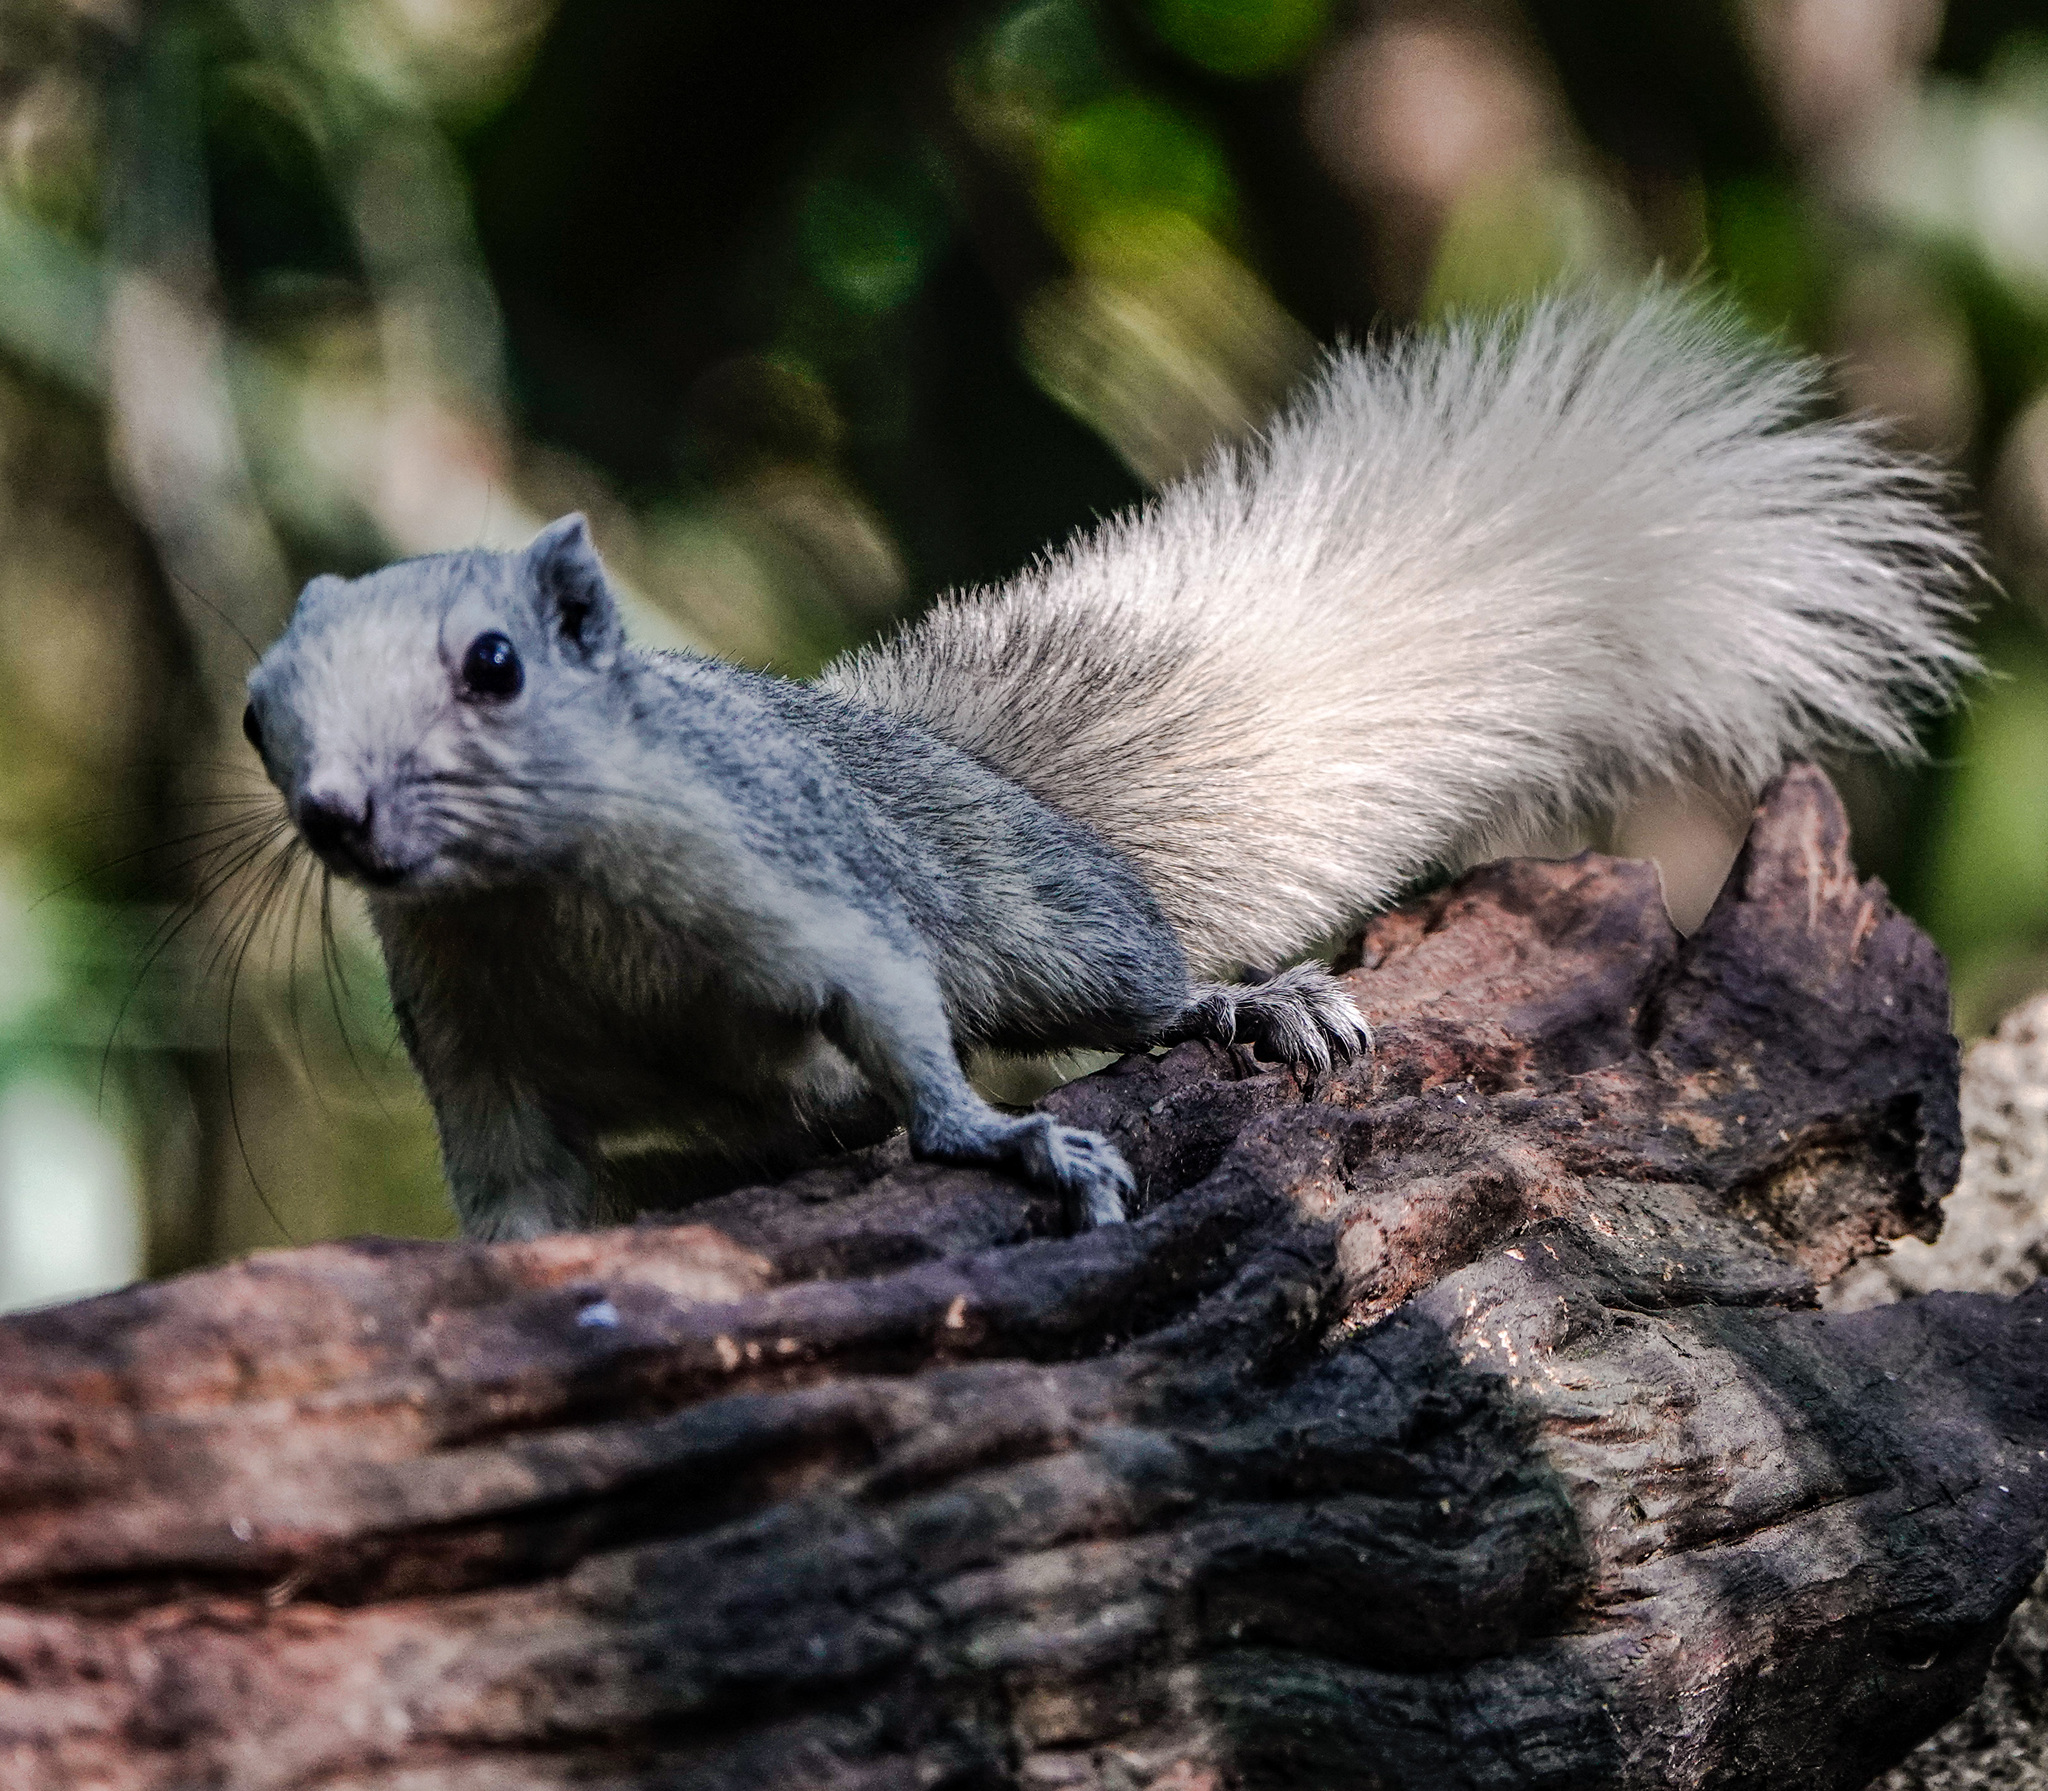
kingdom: Animalia
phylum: Chordata
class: Mammalia
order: Rodentia
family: Sciuridae
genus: Callosciurus
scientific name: Callosciurus finlaysonii
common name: Finlayson's squirrel
